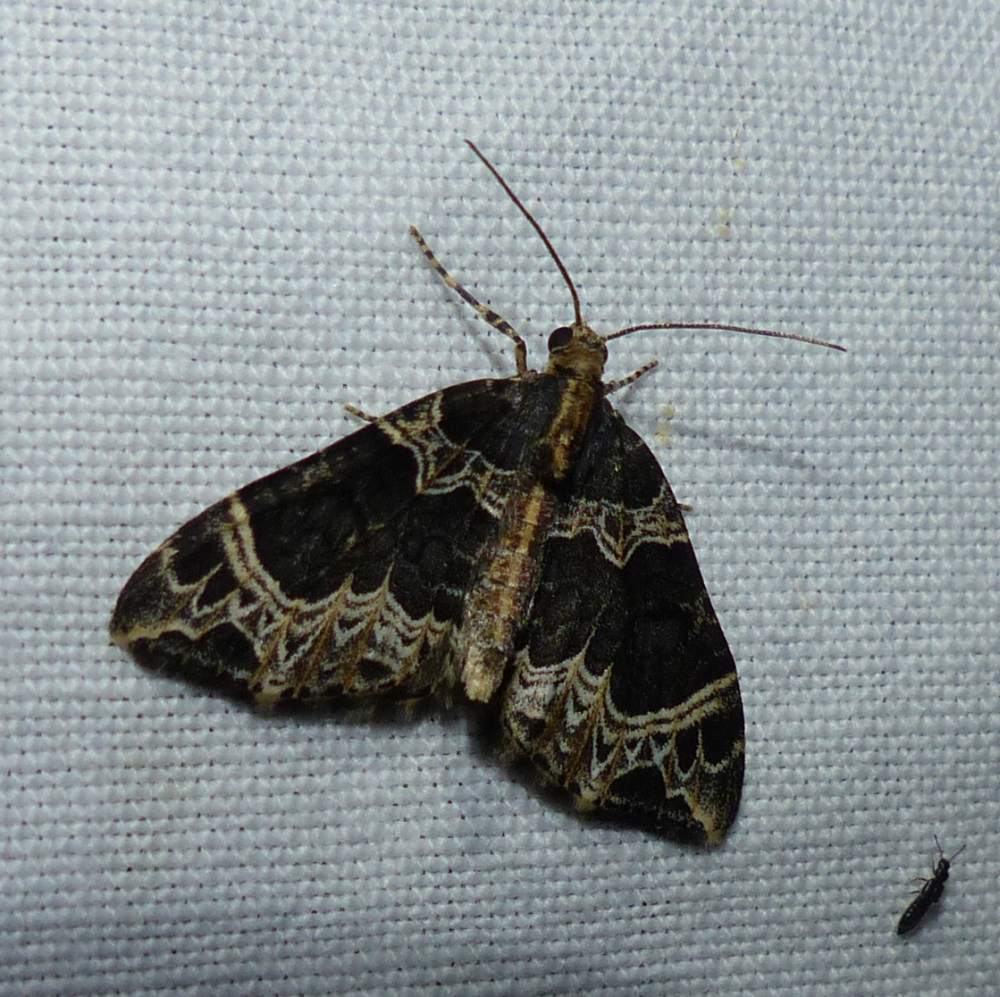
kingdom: Animalia
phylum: Arthropoda
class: Insecta
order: Lepidoptera
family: Geometridae
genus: Ecliptopera
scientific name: Ecliptopera silaceata
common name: Small phoenix
